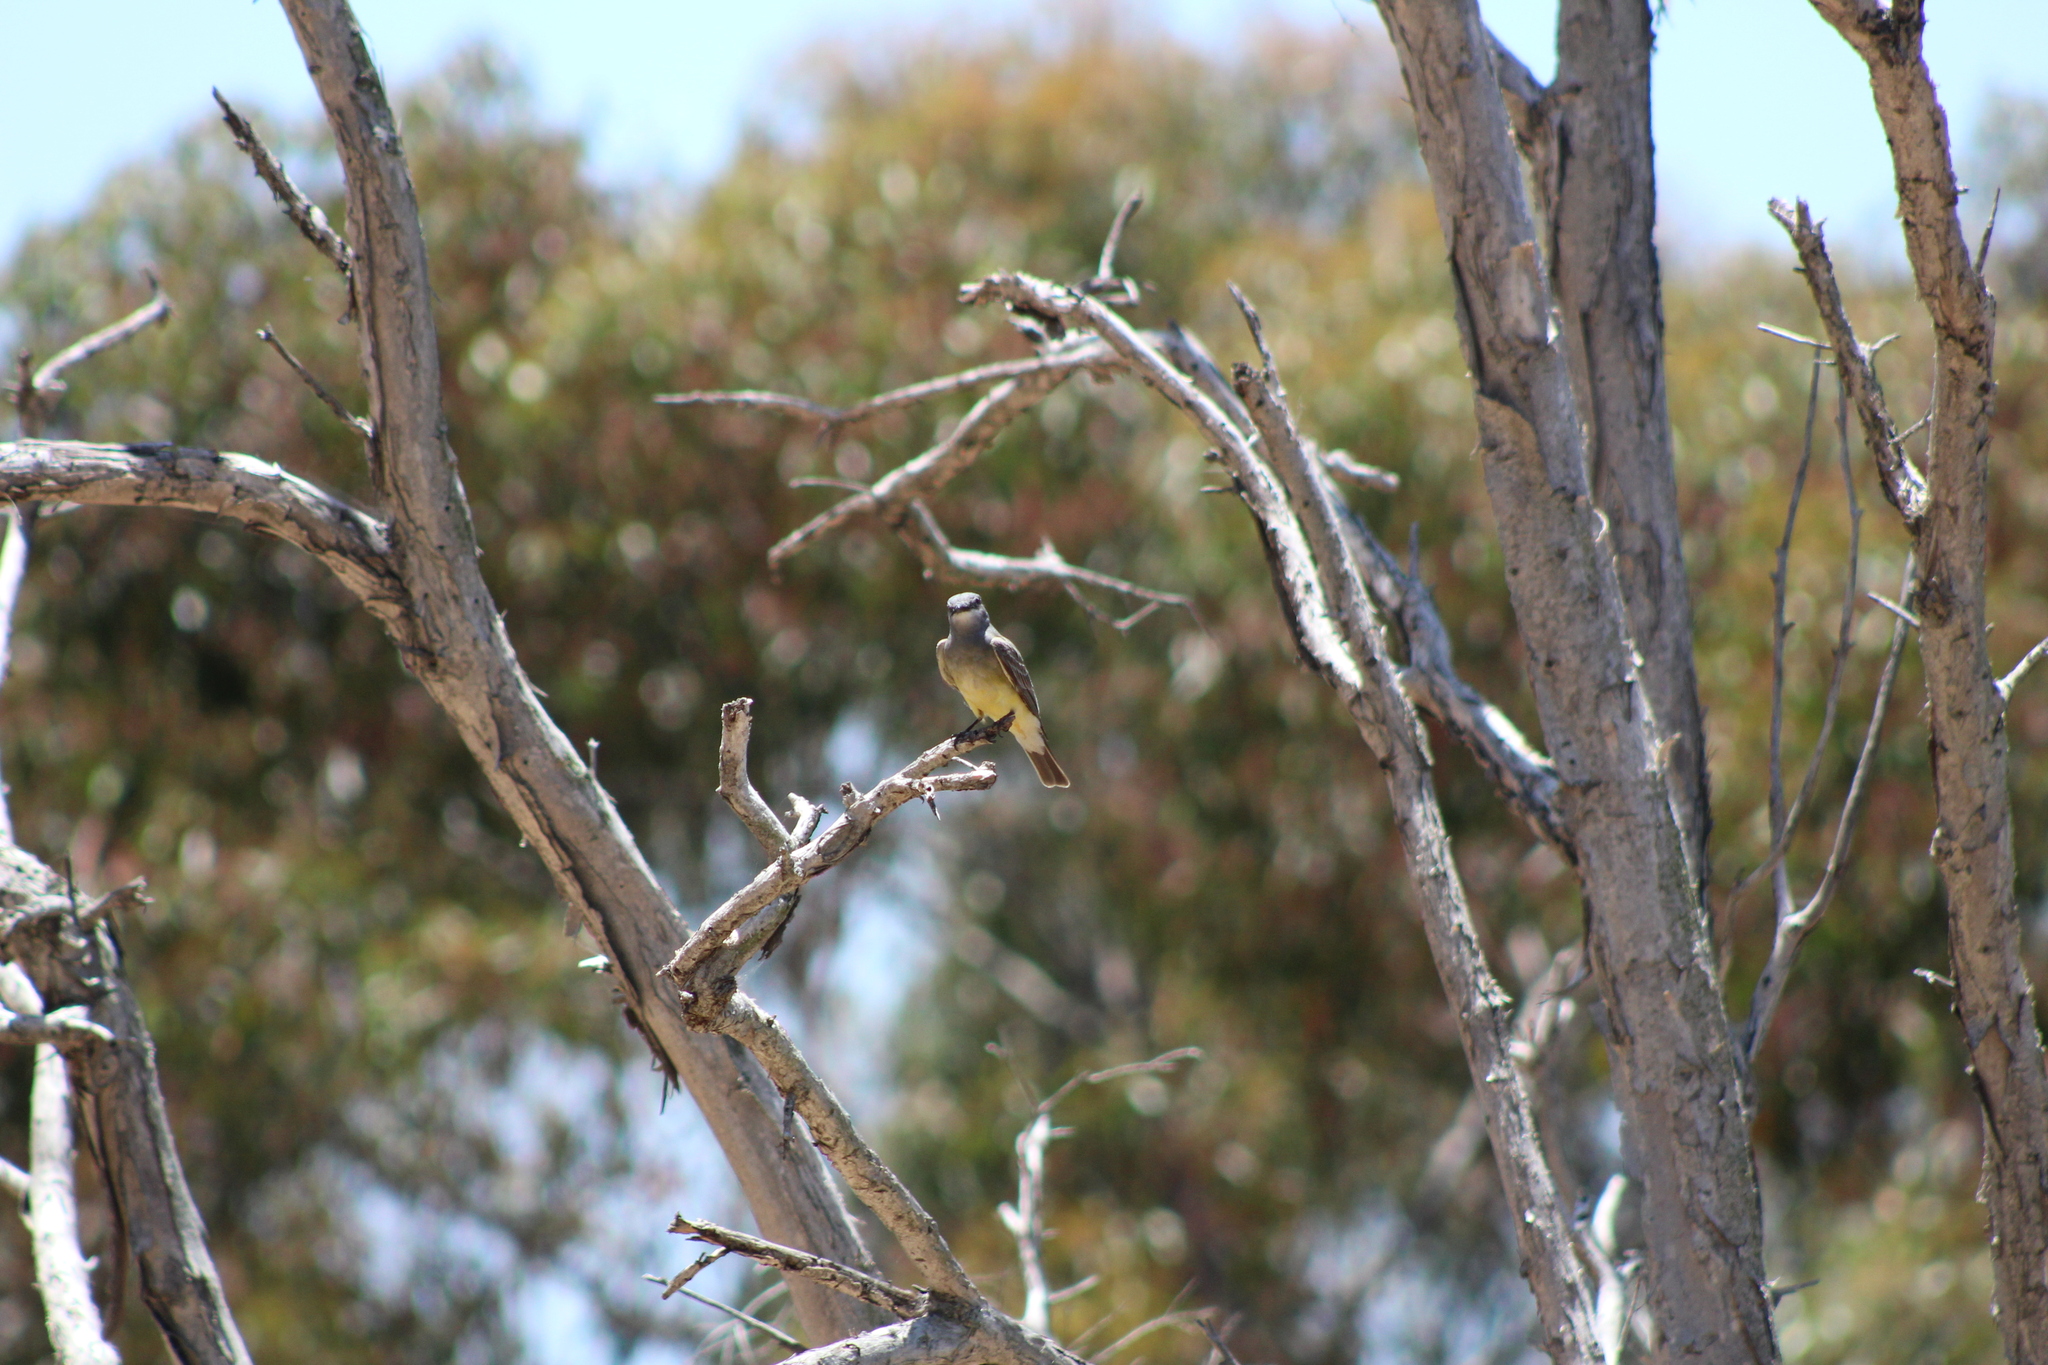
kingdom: Animalia
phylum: Chordata
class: Aves
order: Passeriformes
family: Tyrannidae
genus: Tyrannus
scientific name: Tyrannus vociferans
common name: Cassin's kingbird
